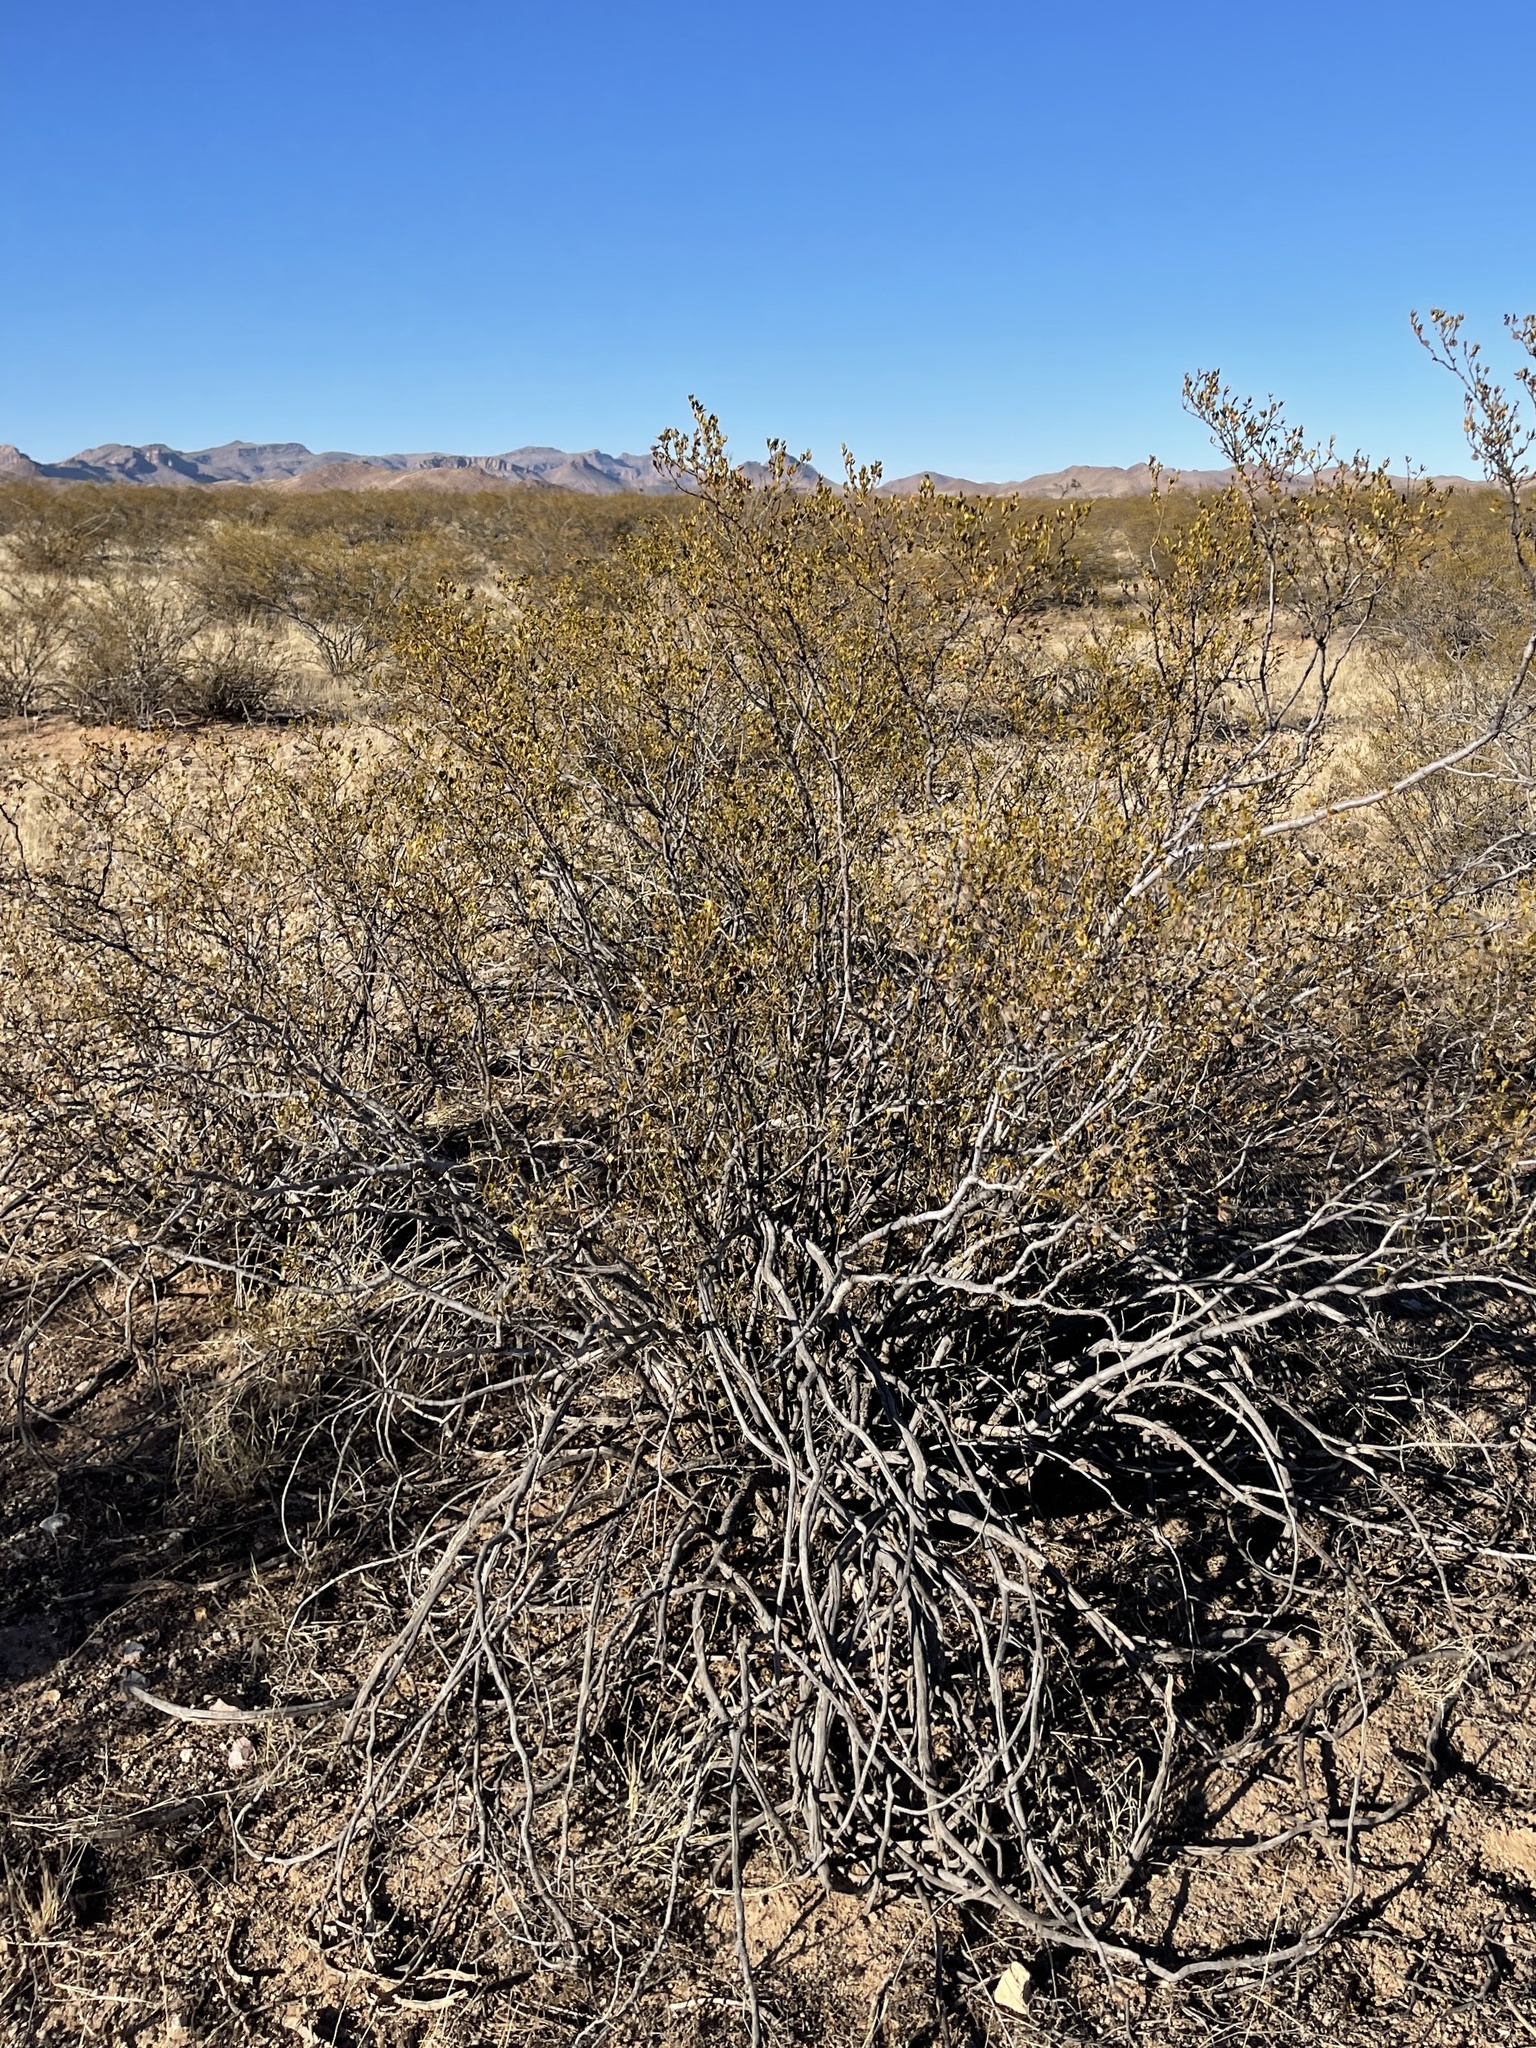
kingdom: Plantae
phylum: Tracheophyta
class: Magnoliopsida
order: Zygophyllales
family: Zygophyllaceae
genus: Larrea
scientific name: Larrea tridentata
